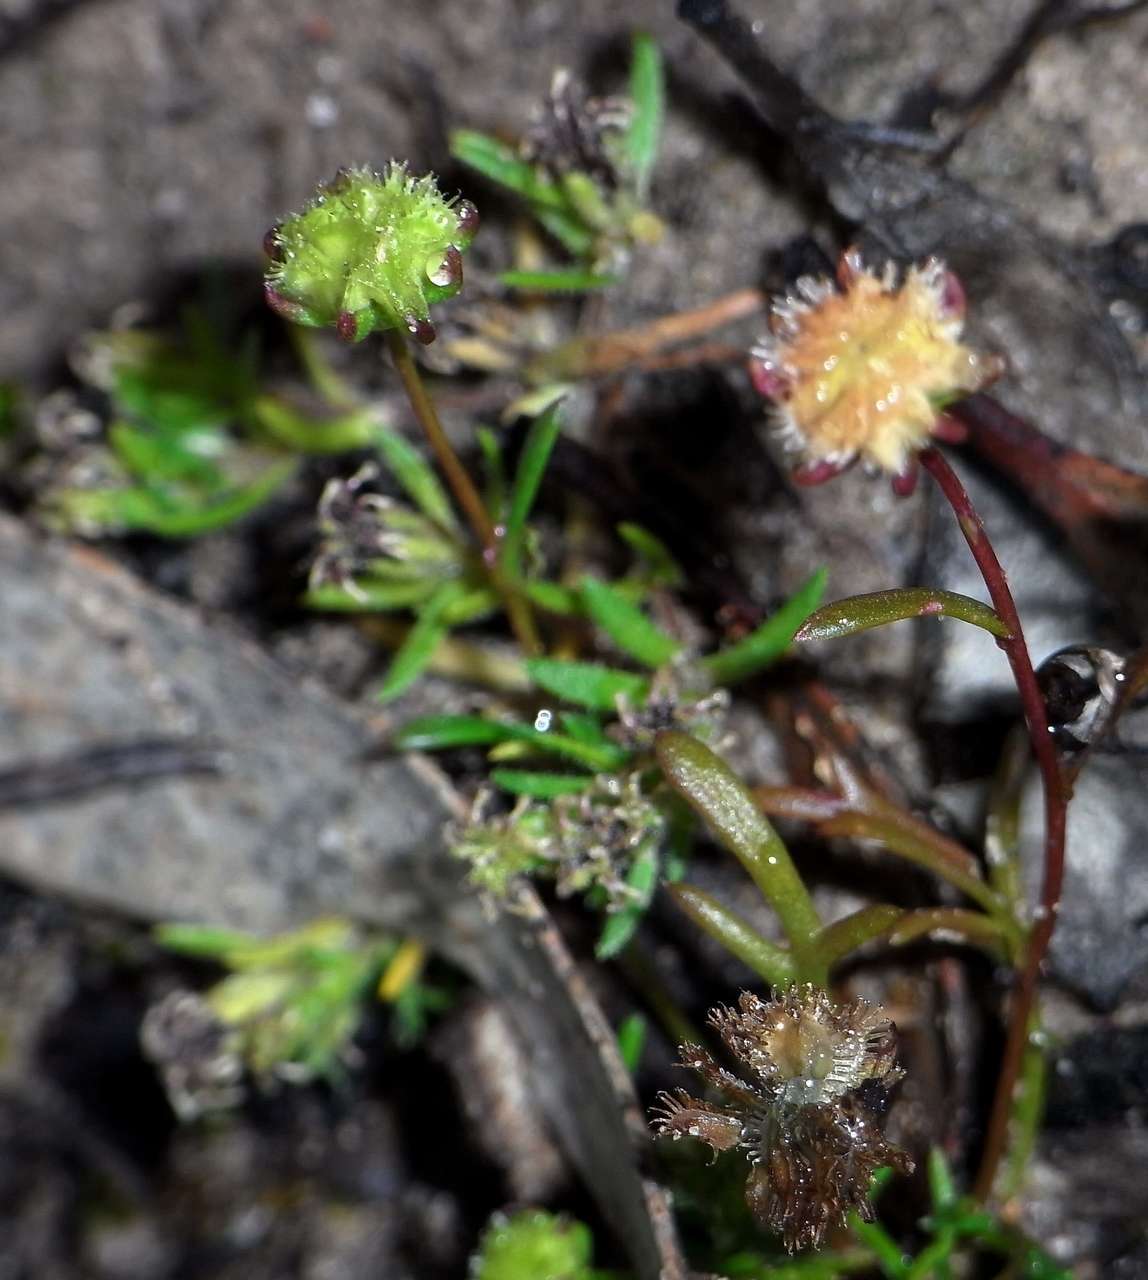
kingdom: Plantae
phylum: Tracheophyta
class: Magnoliopsida
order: Asterales
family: Asteraceae
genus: Brachyscome
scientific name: Brachyscome perpusilla
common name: Tiny daisy
